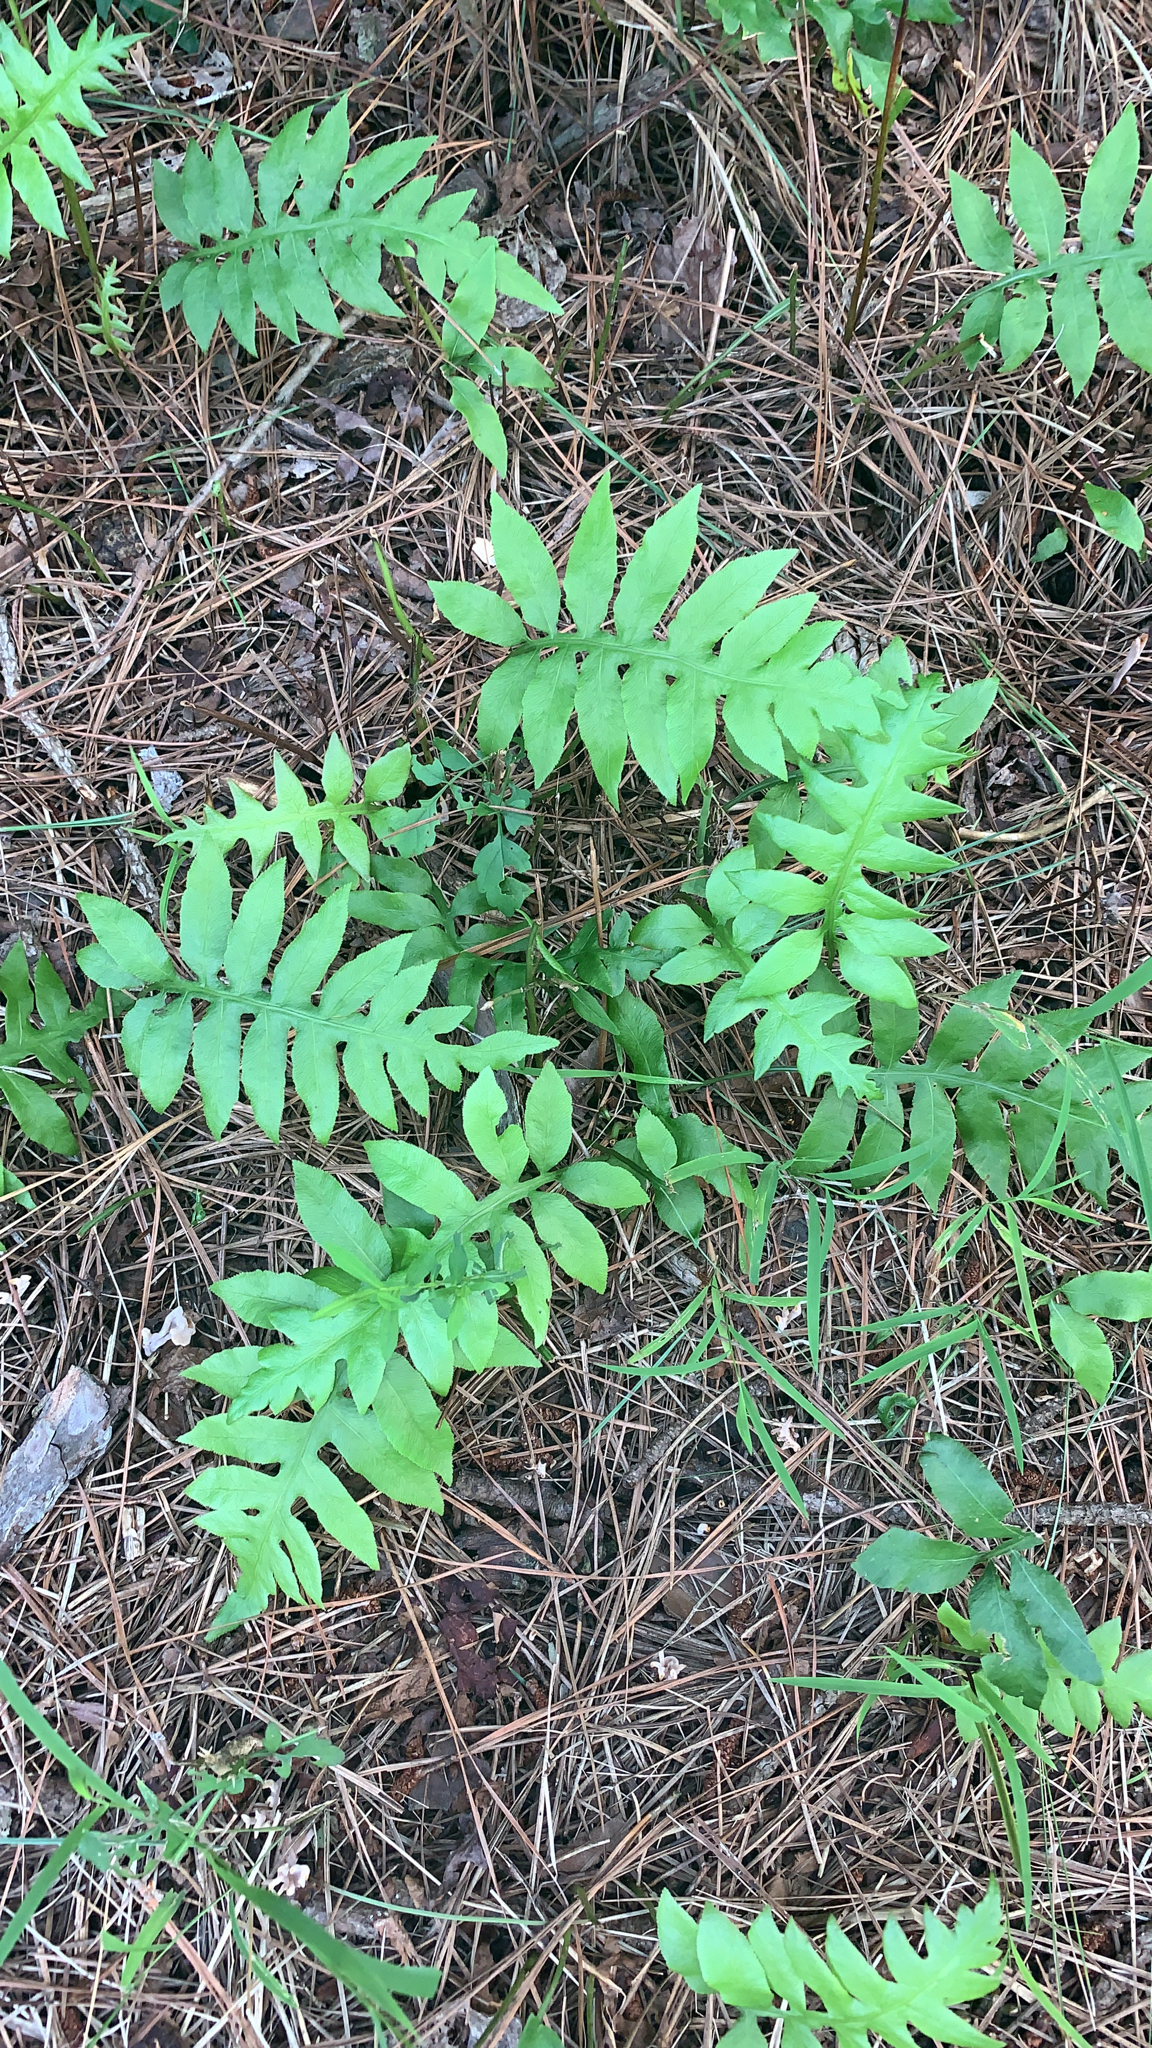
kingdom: Plantae
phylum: Tracheophyta
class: Polypodiopsida
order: Polypodiales
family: Blechnaceae
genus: Lorinseria
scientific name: Lorinseria areolata
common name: Dwarf chain fern
